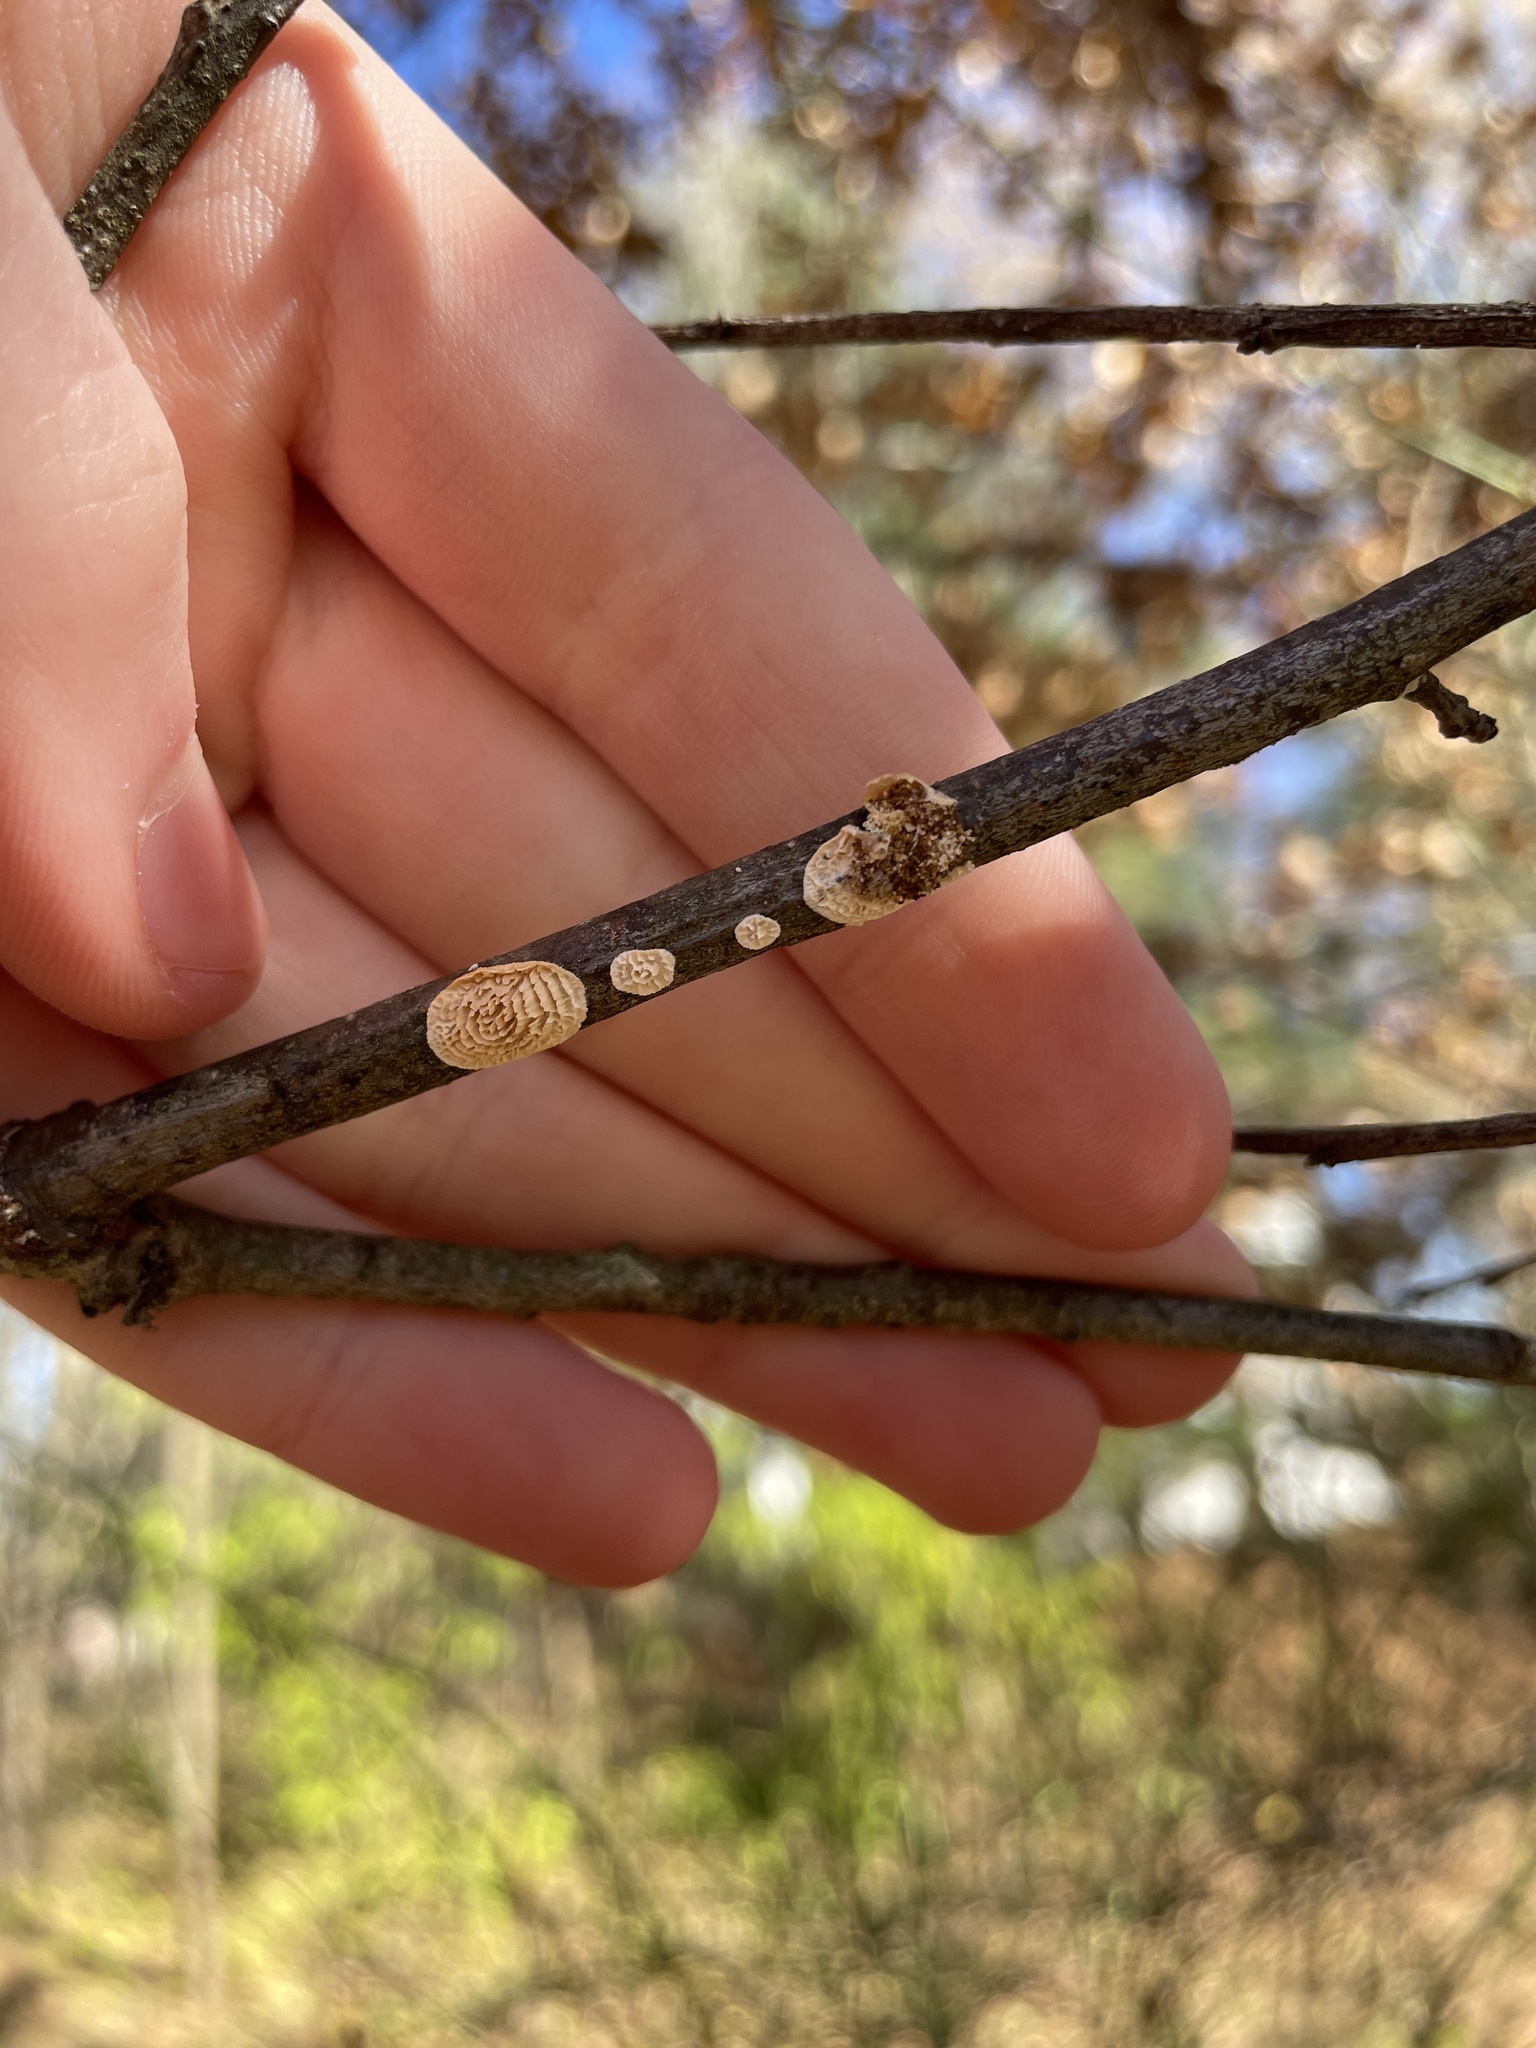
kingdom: Fungi
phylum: Basidiomycota
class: Agaricomycetes
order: Polyporales
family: Irpicaceae
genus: Irpex
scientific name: Irpex lacteus
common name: Milk-white toothed polypore
